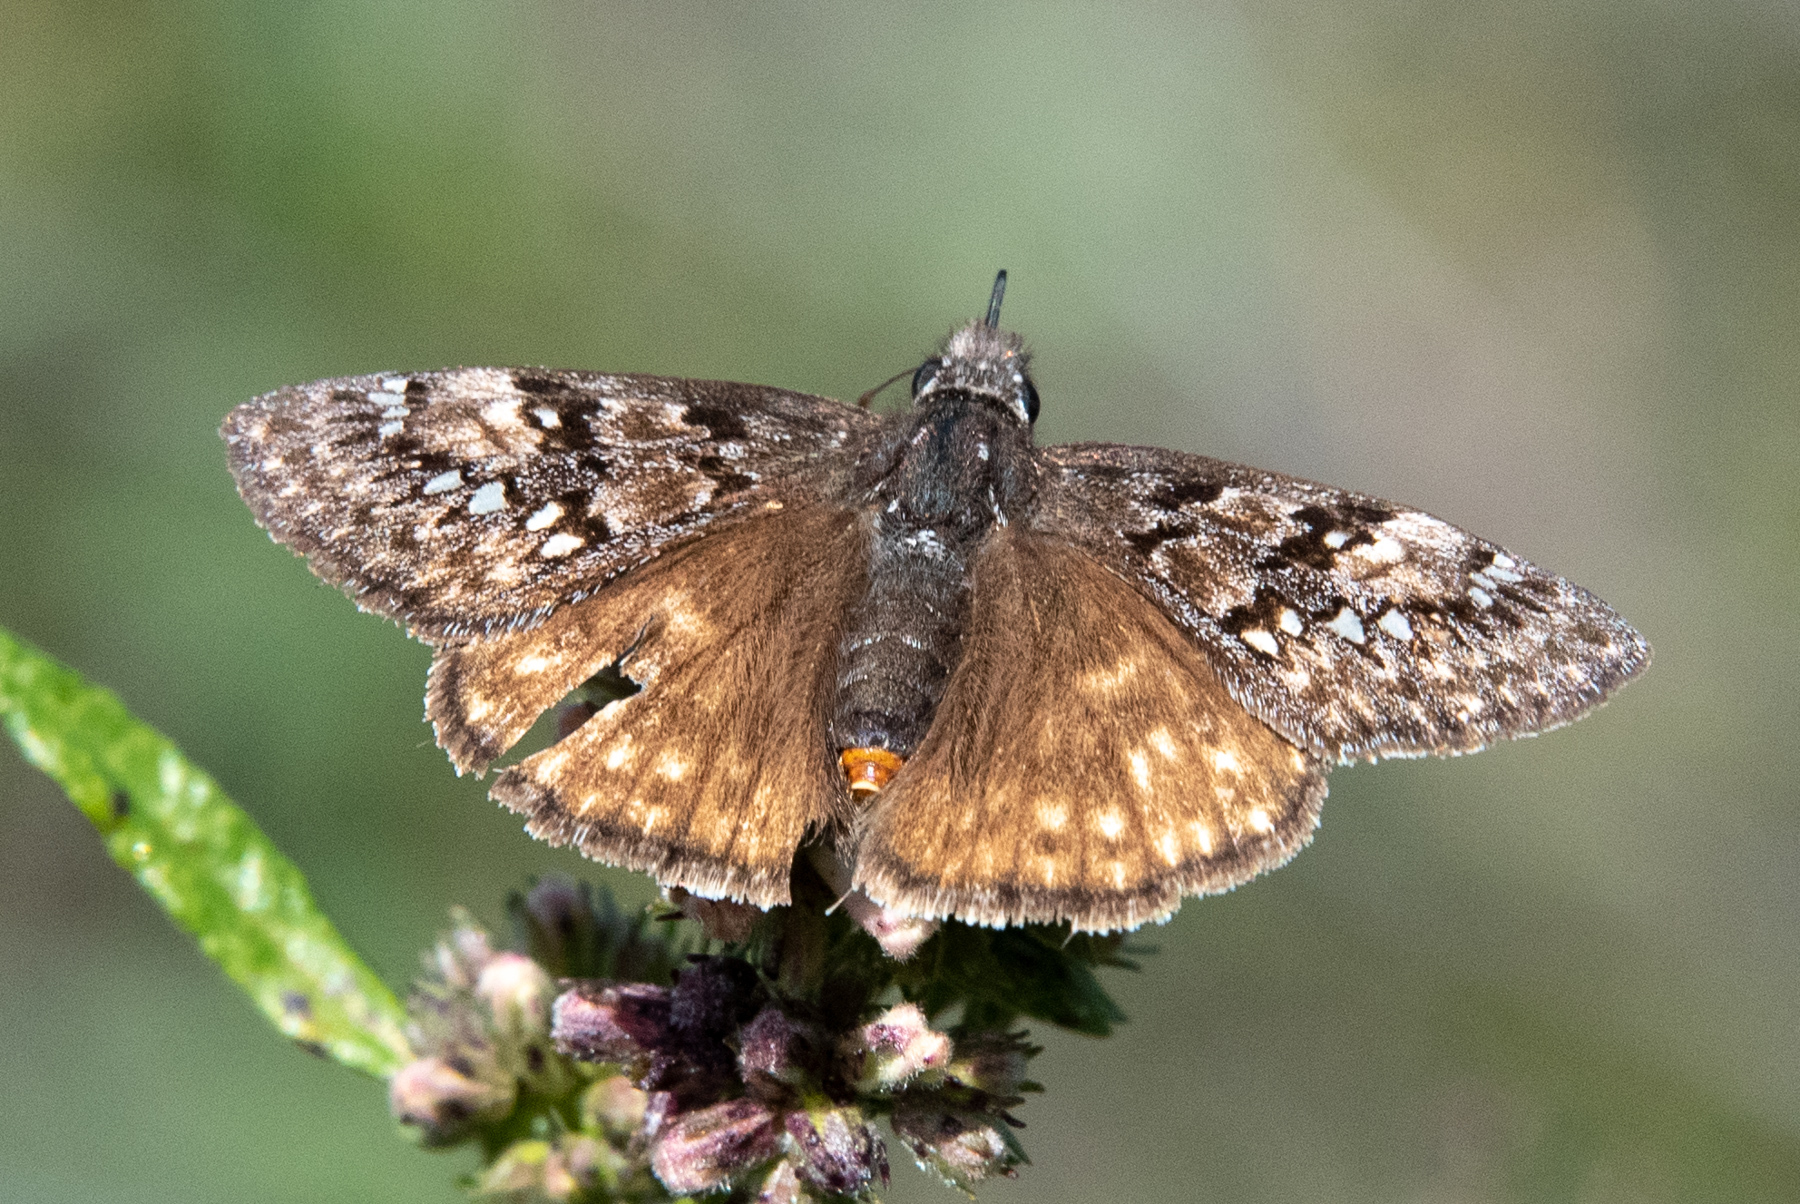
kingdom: Animalia
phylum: Arthropoda
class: Insecta
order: Lepidoptera
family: Hesperiidae
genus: Erynnis
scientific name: Erynnis propertius
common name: Propertius duskywing
